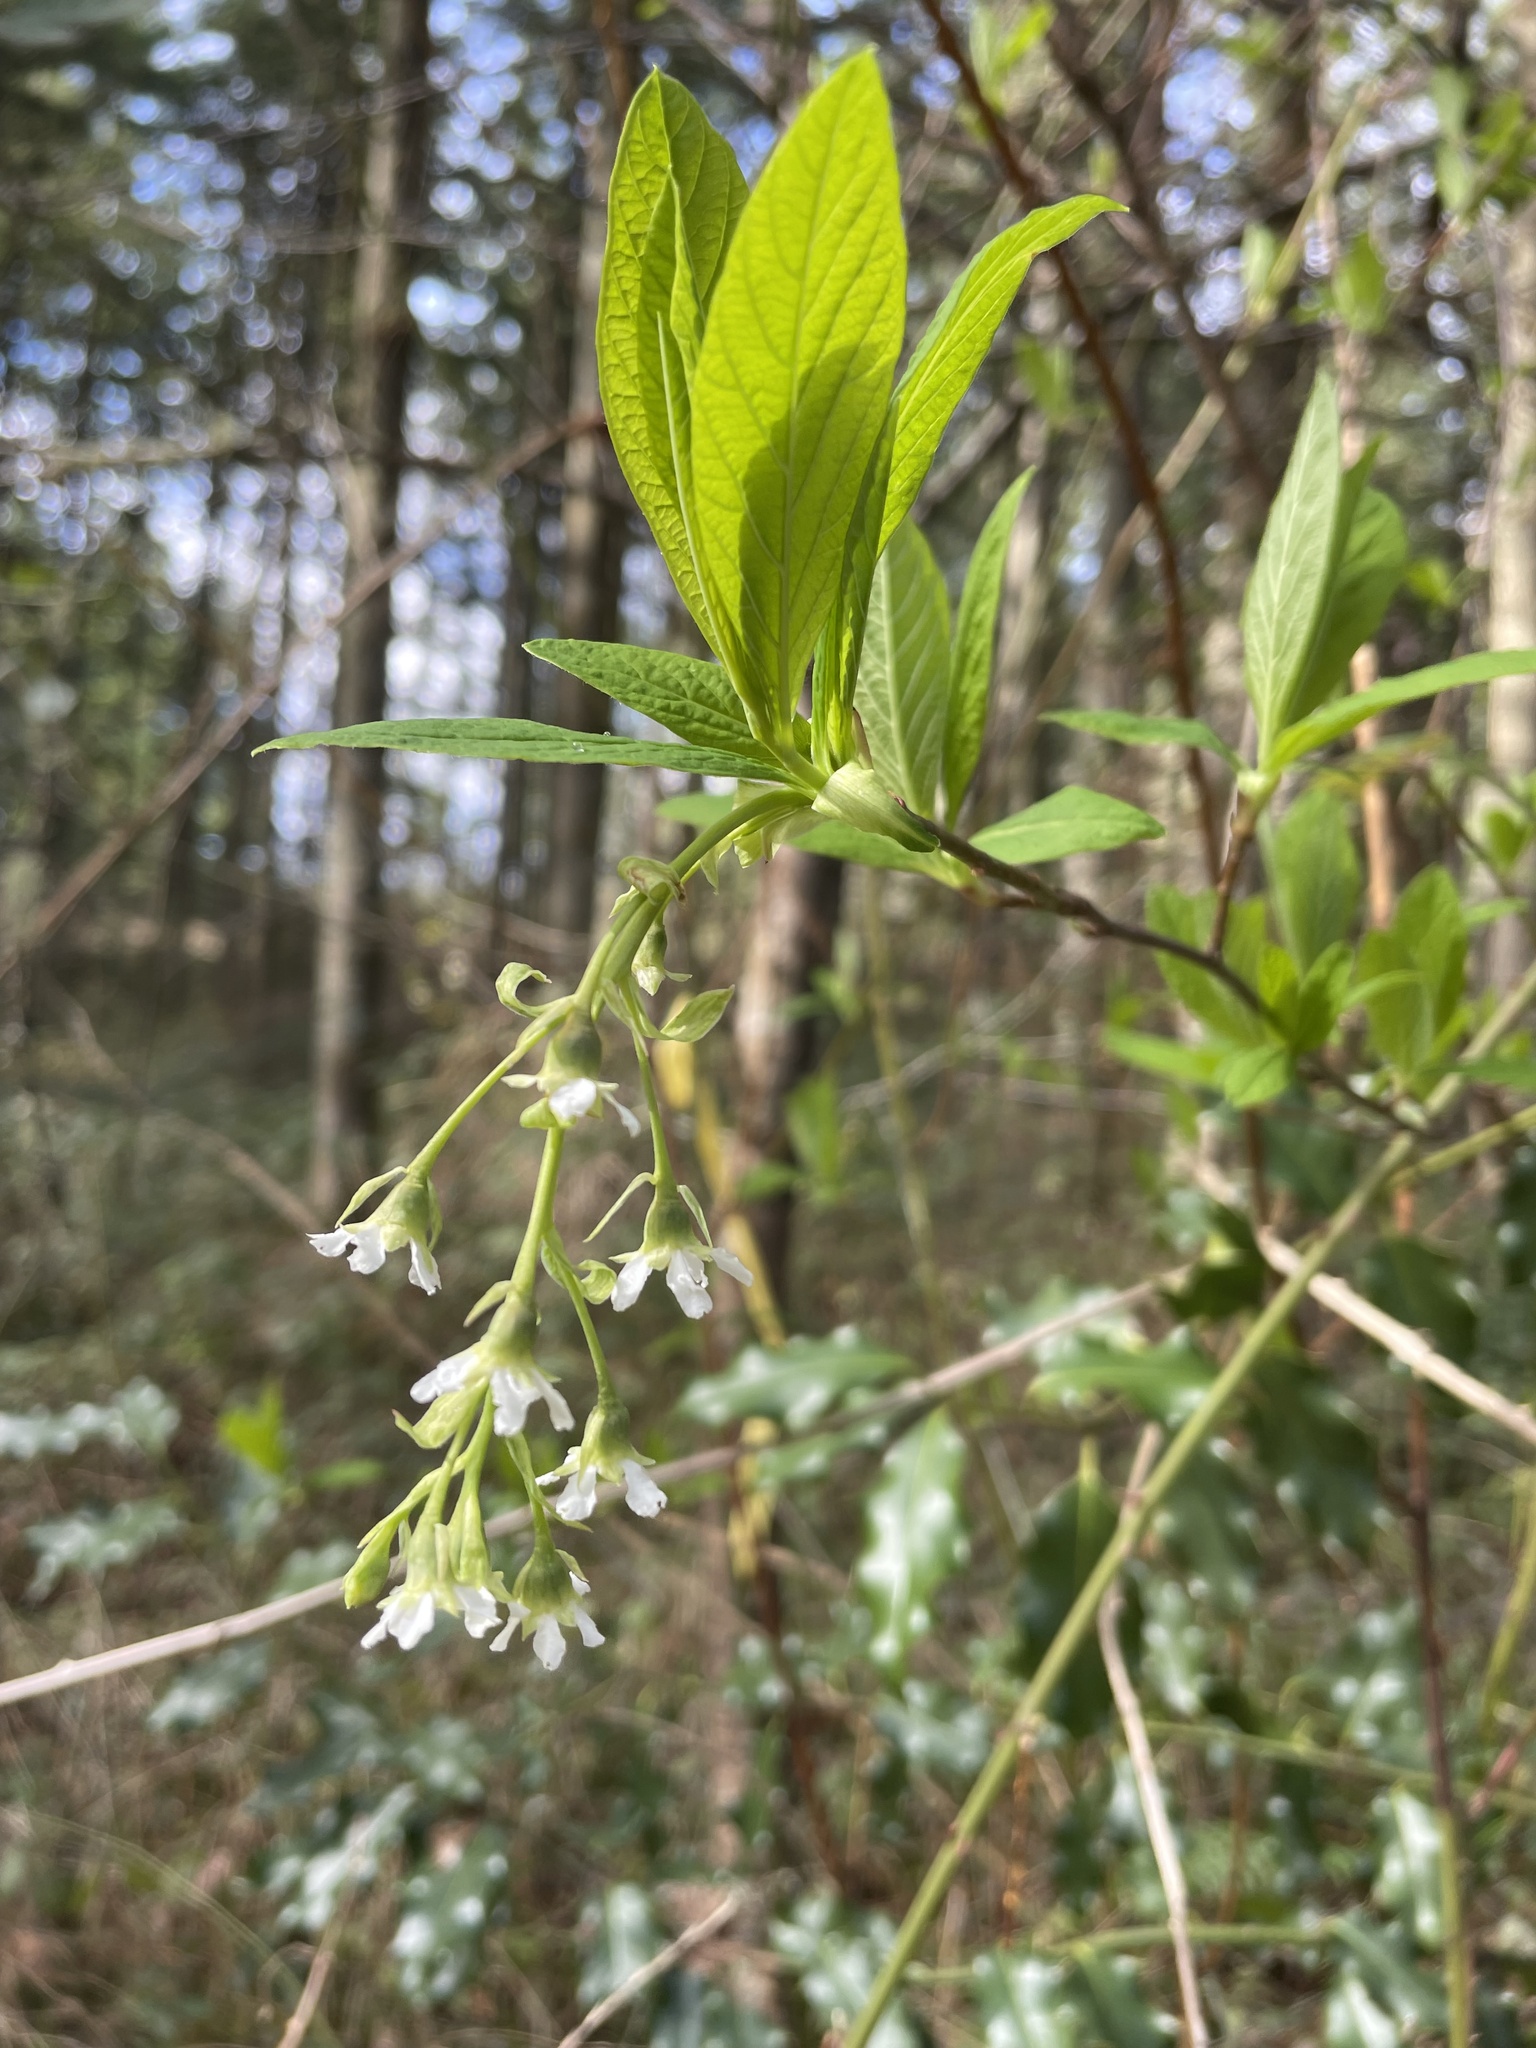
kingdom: Plantae
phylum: Tracheophyta
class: Magnoliopsida
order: Rosales
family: Rosaceae
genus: Oemleria
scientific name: Oemleria cerasiformis
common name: Osoberry
